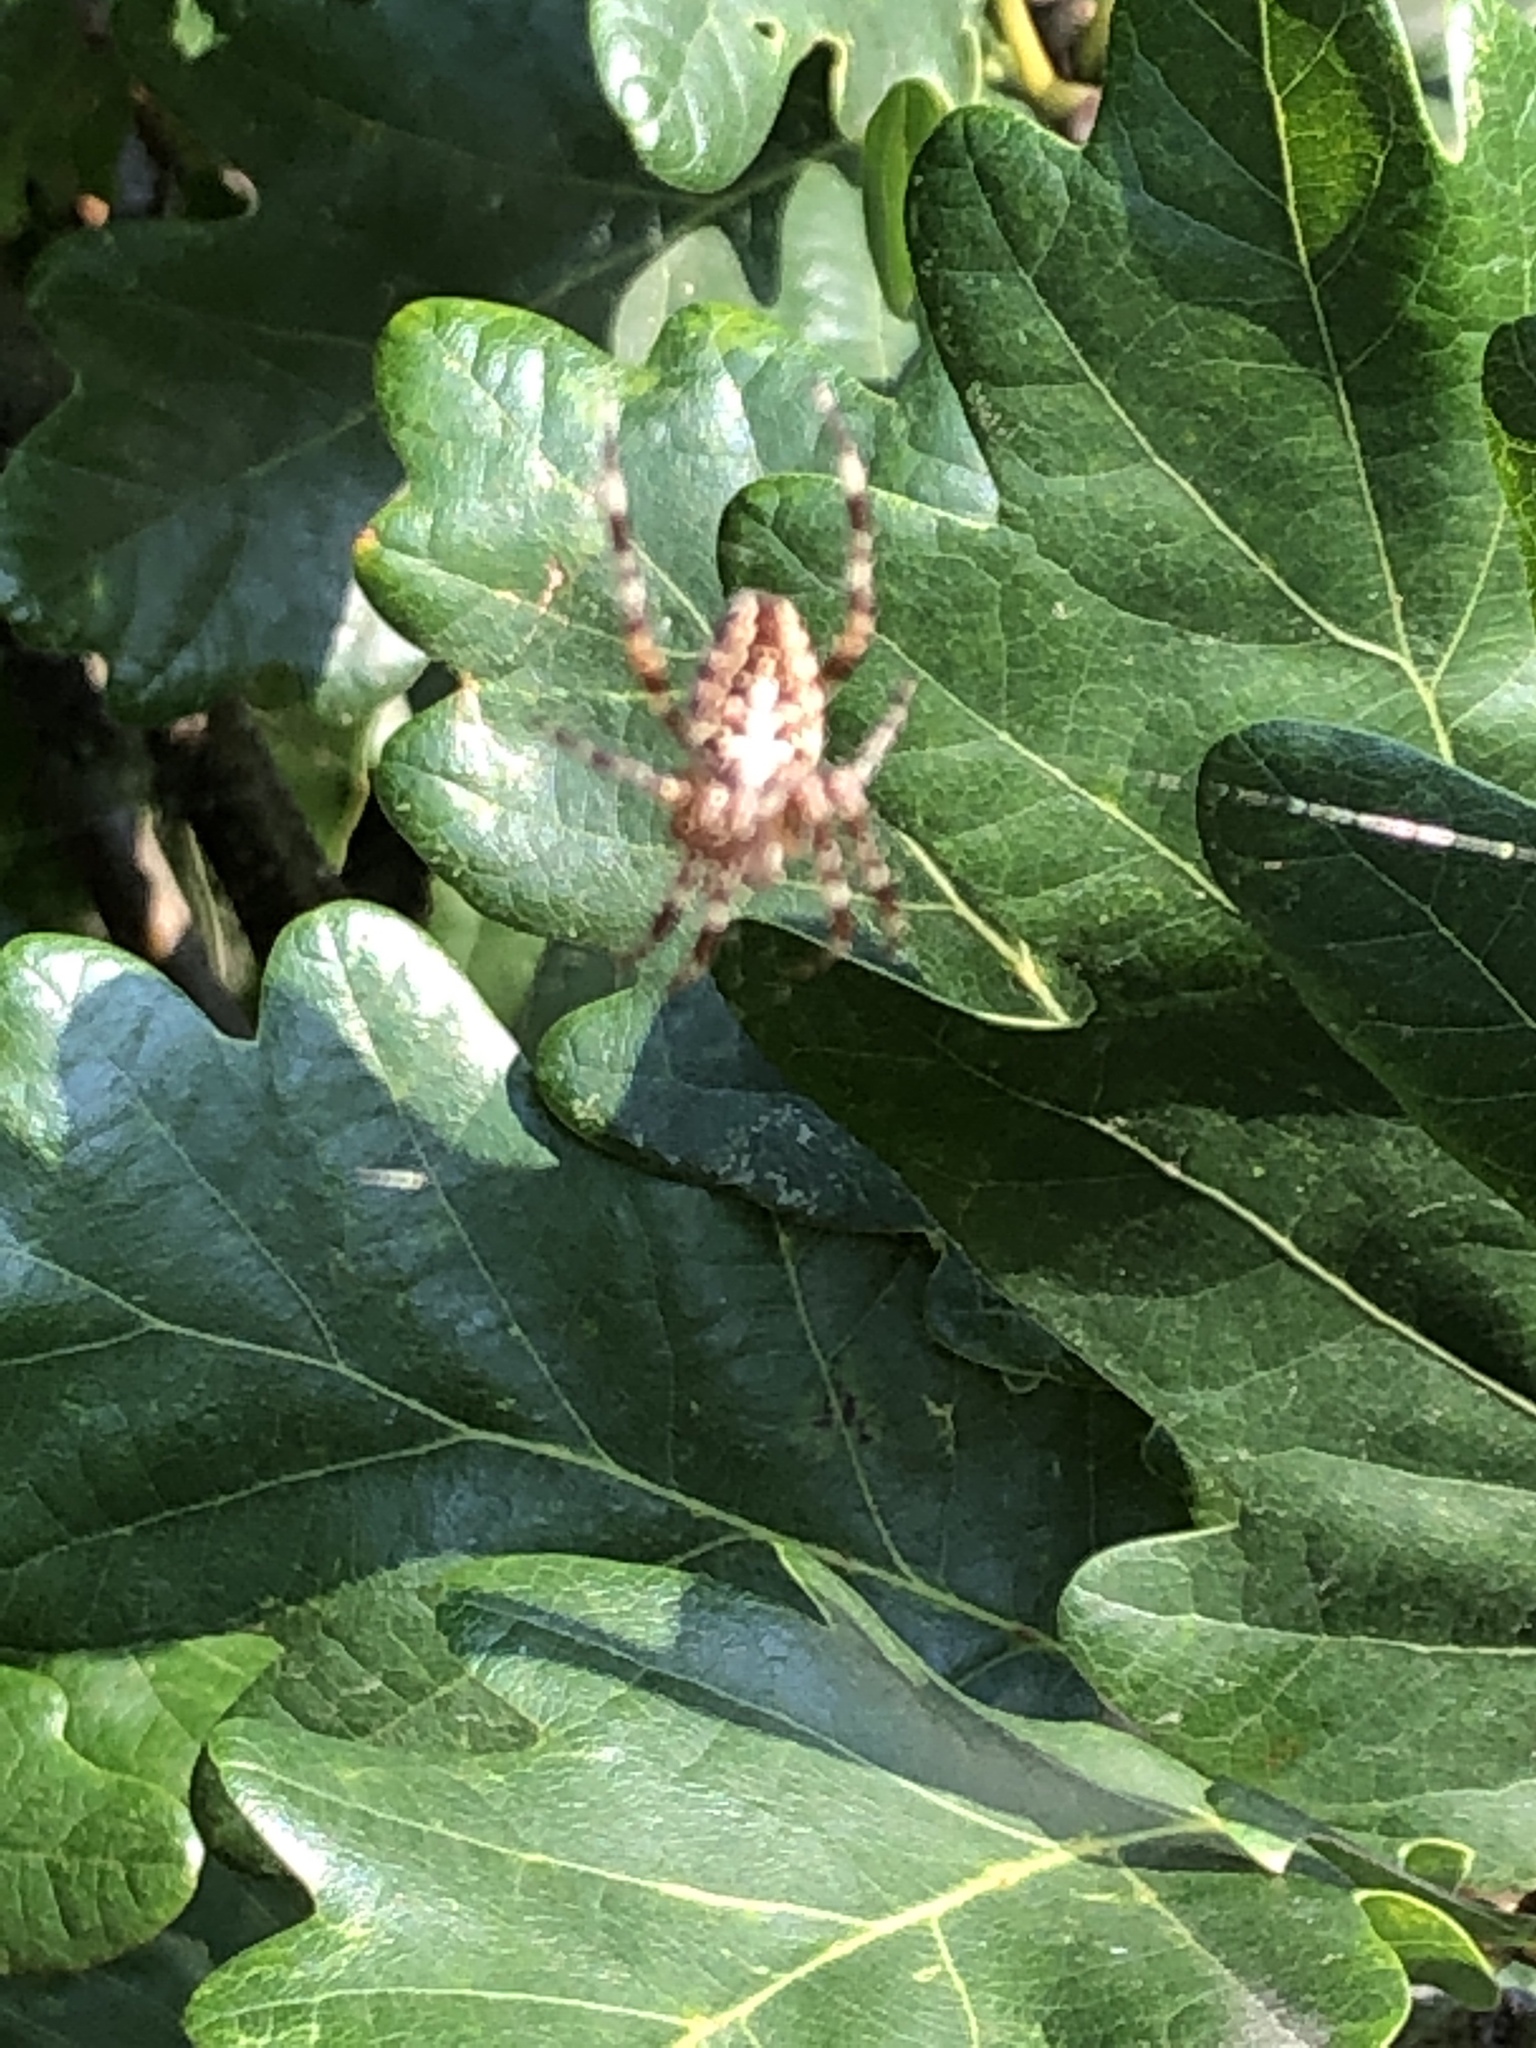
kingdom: Animalia
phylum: Arthropoda
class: Arachnida
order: Araneae
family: Araneidae
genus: Araneus
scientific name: Araneus diadematus
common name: Cross orbweaver
